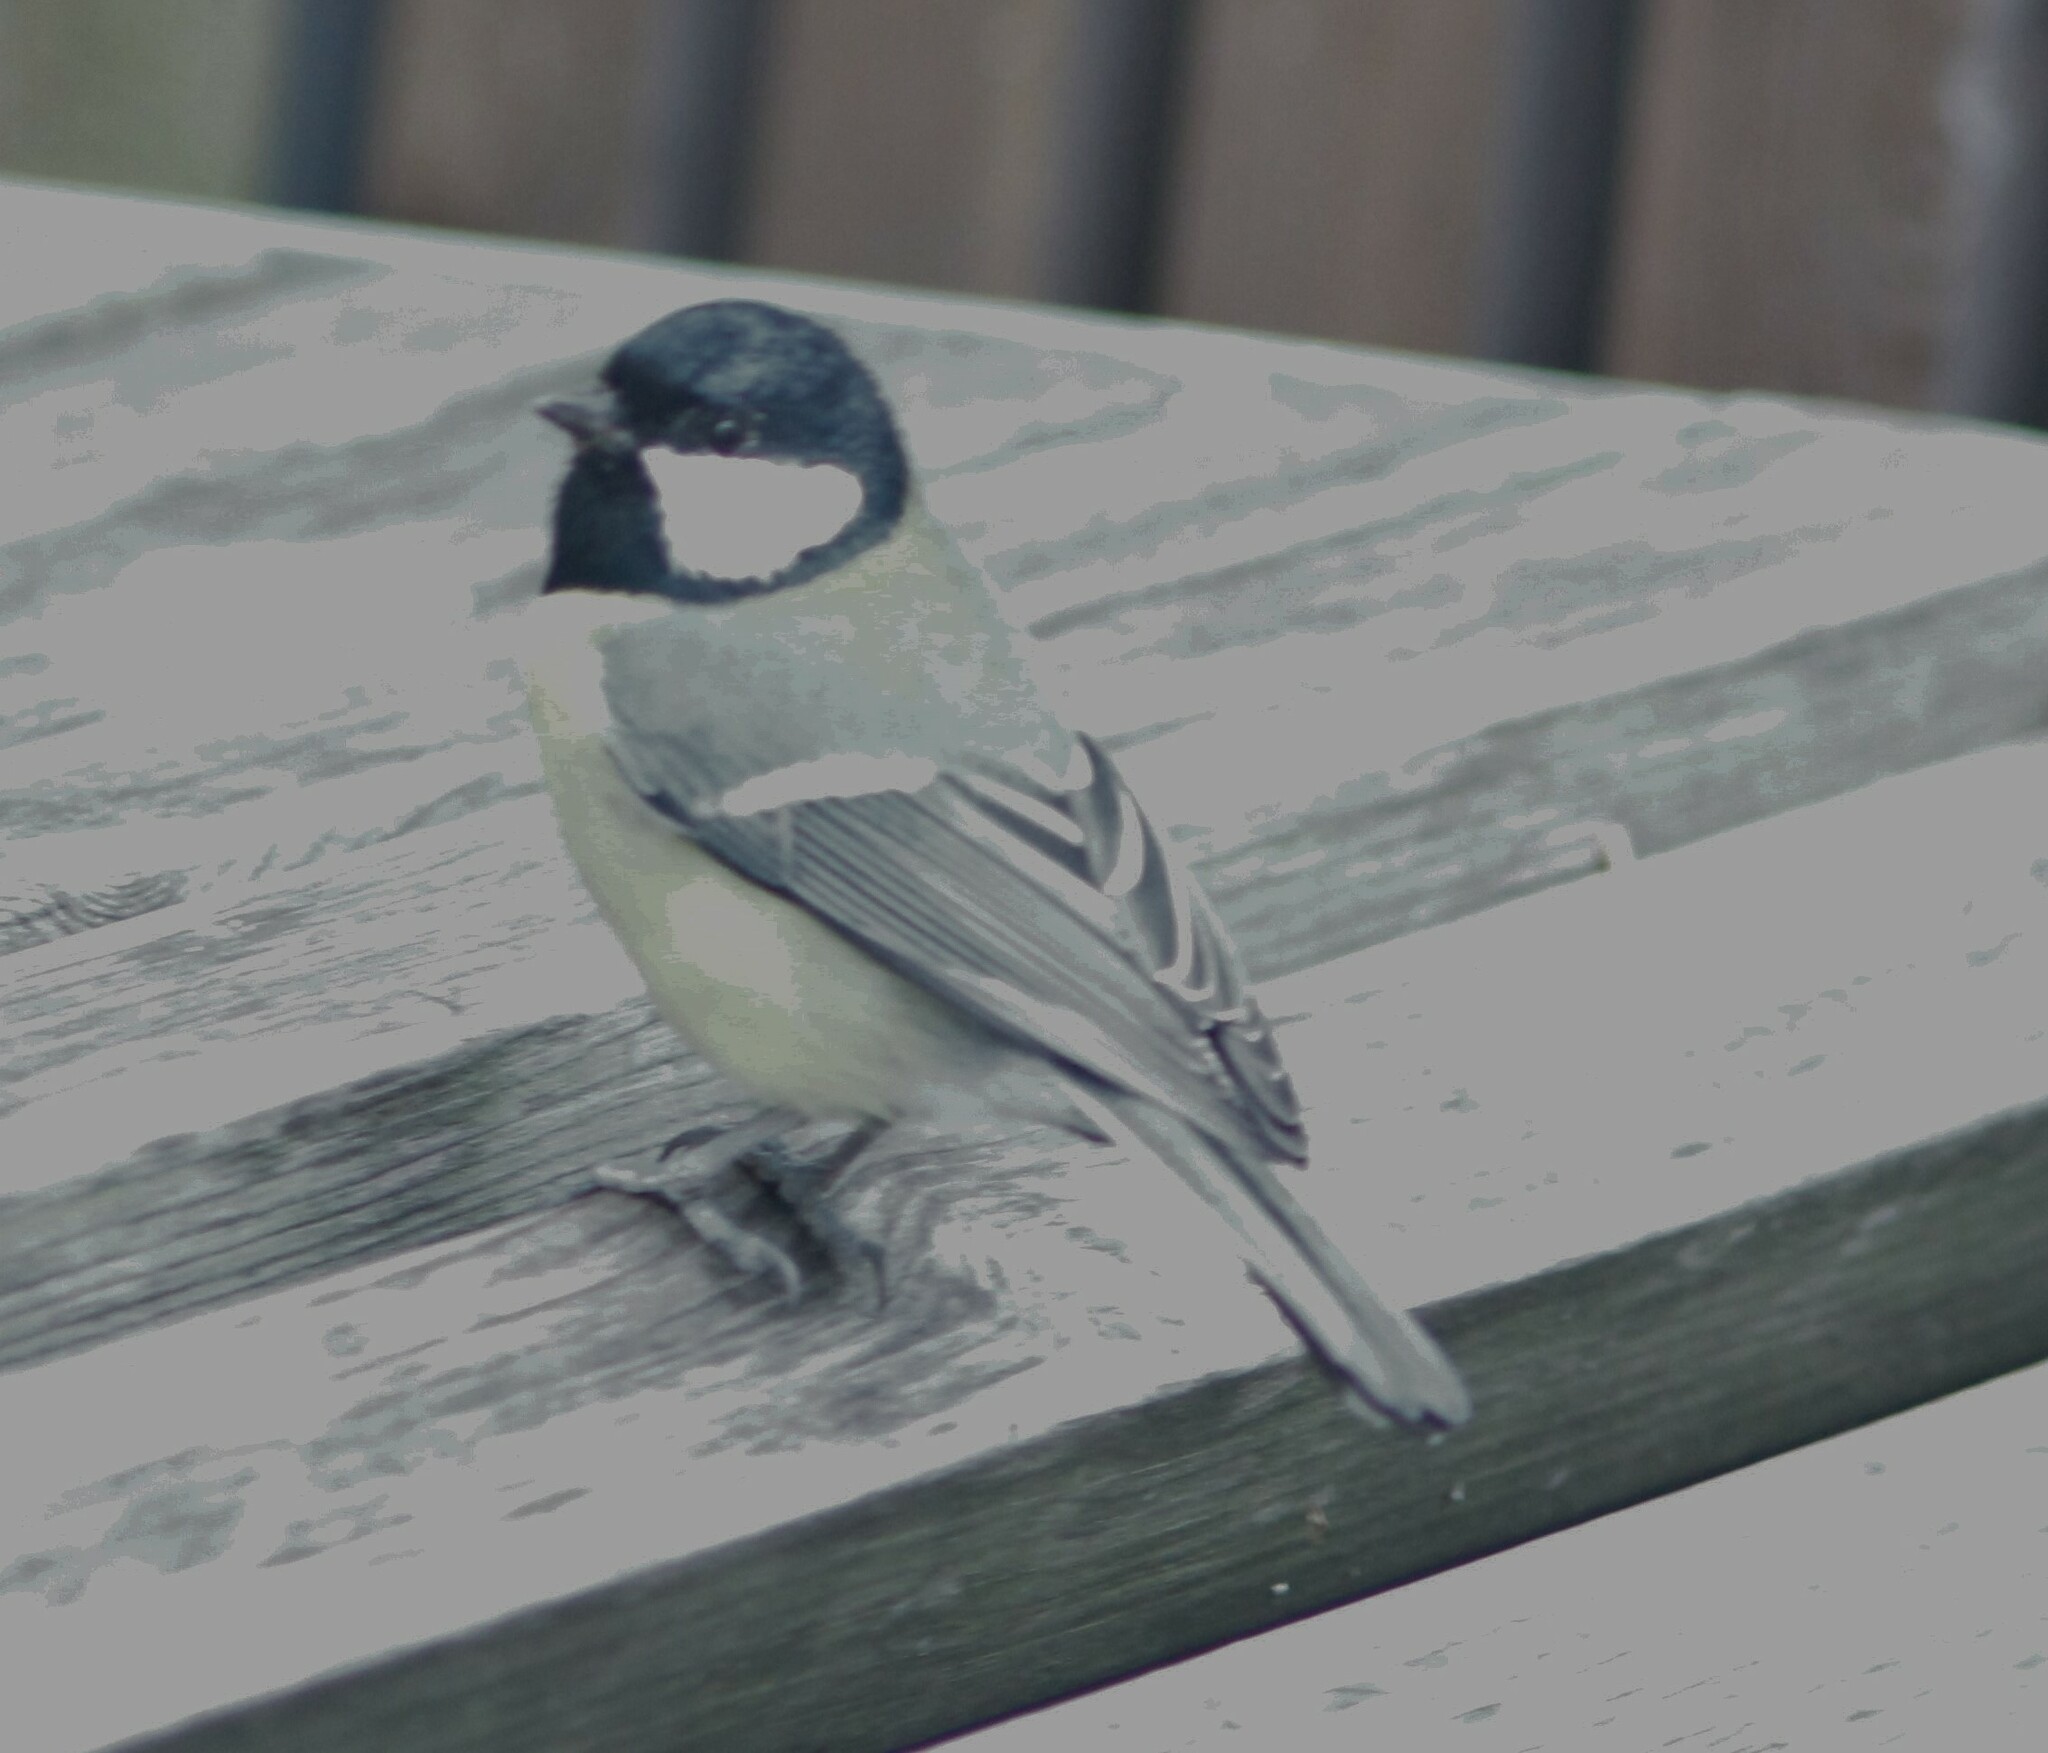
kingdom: Animalia
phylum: Chordata
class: Aves
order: Passeriformes
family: Paridae
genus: Parus
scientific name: Parus major
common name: Great tit
